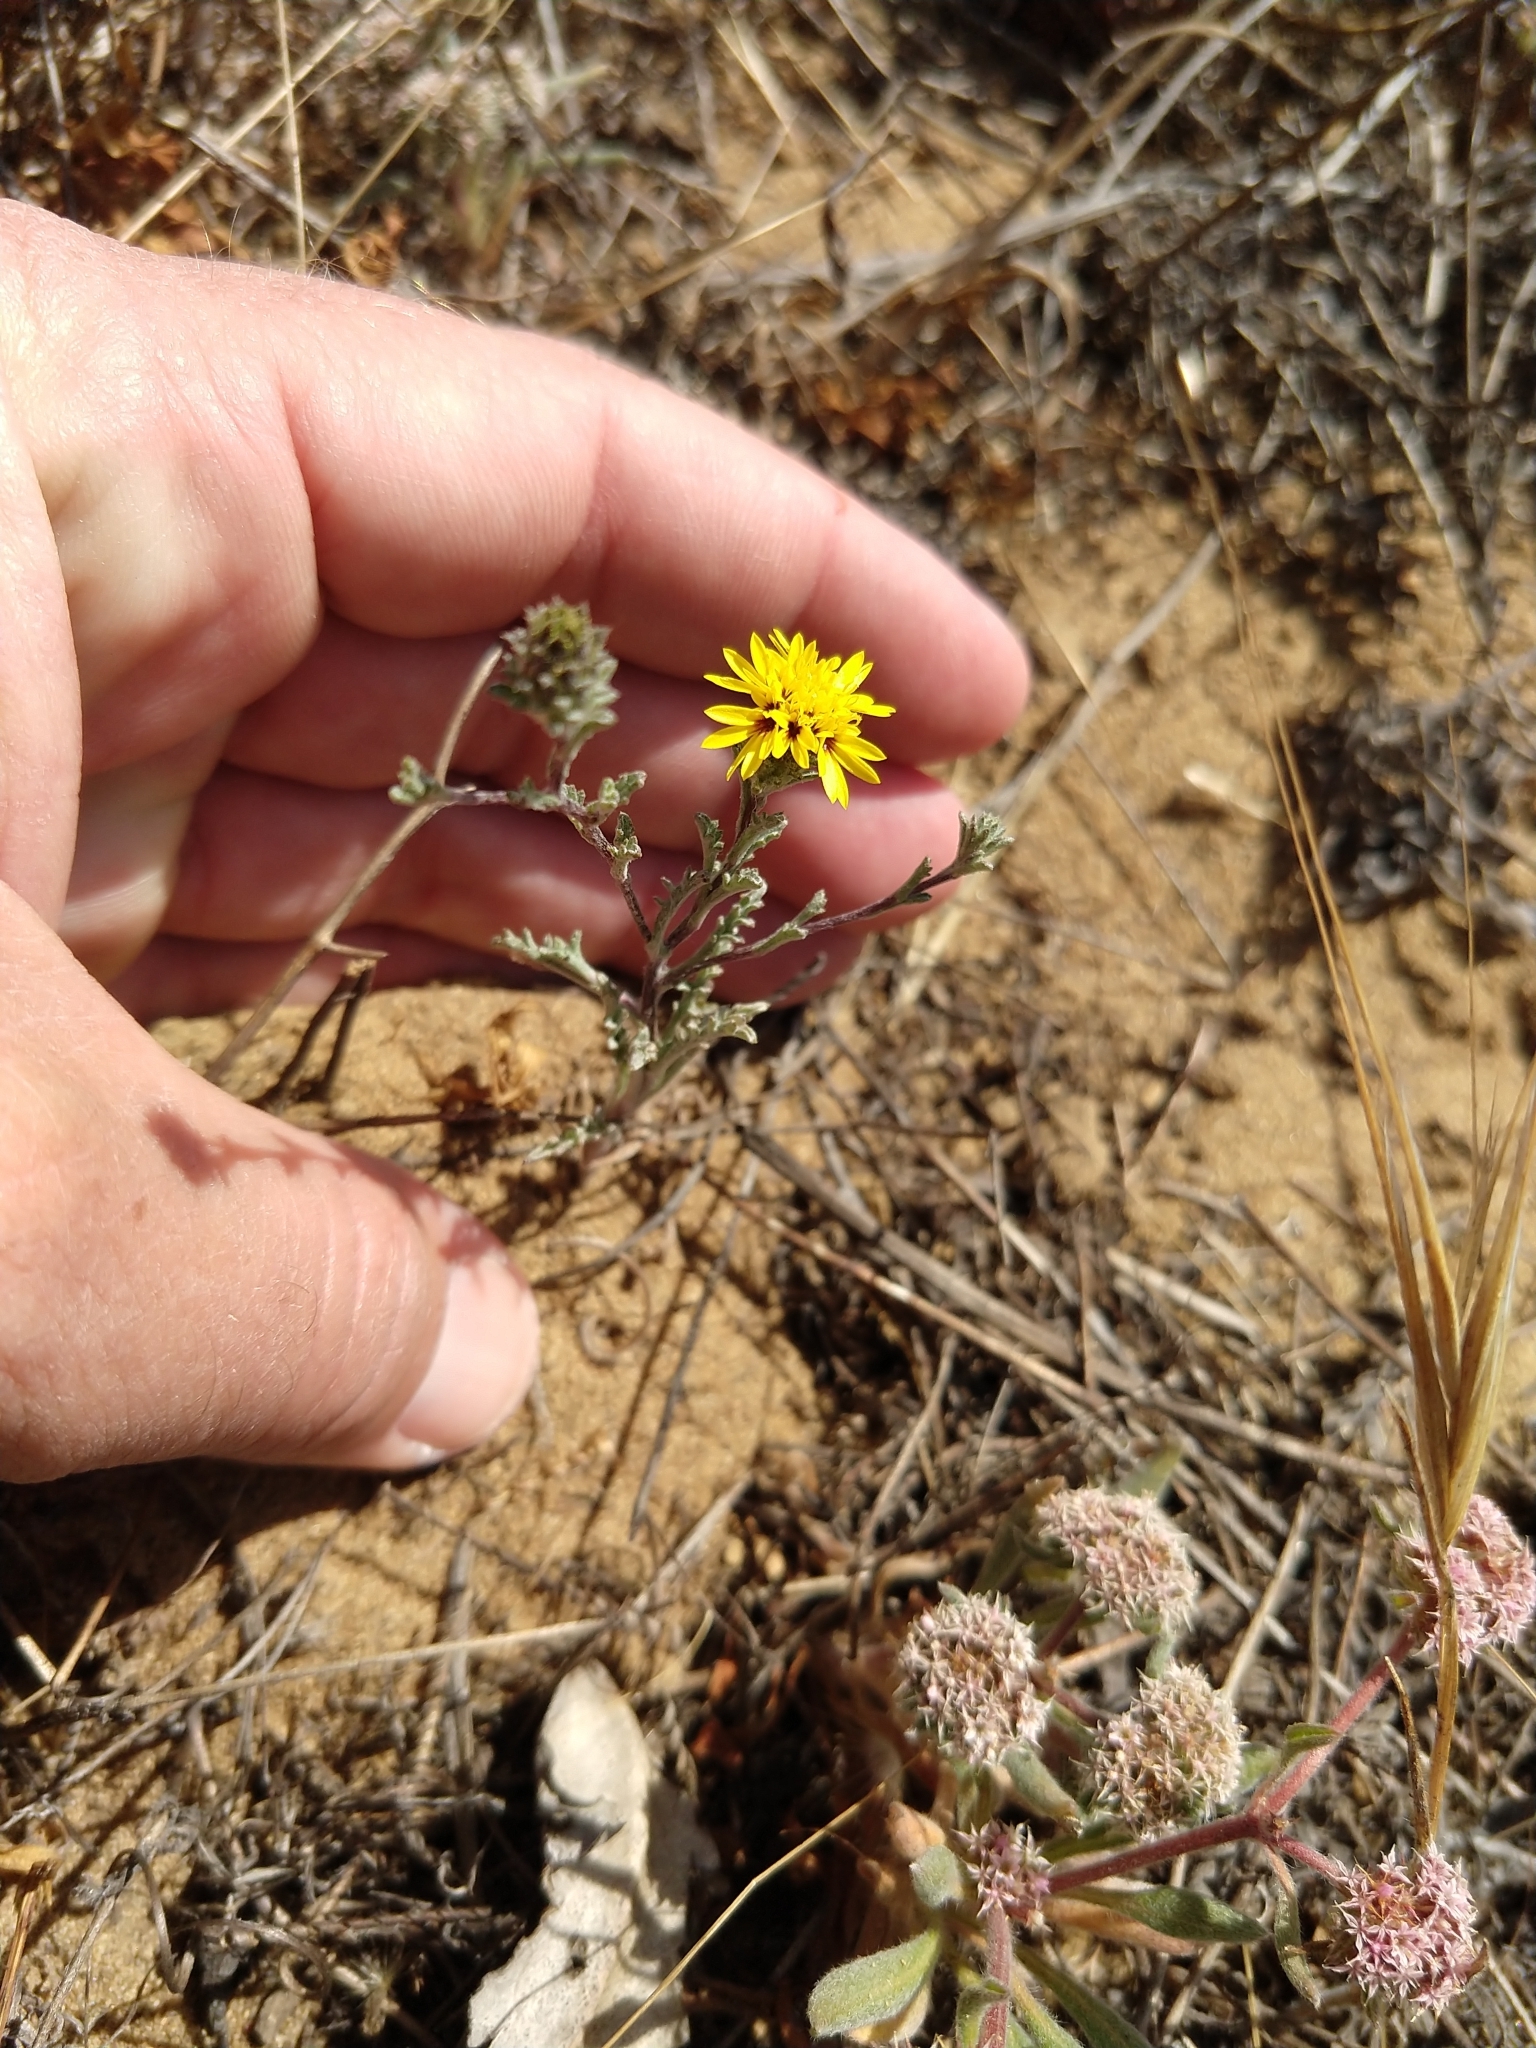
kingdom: Plantae
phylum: Tracheophyta
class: Magnoliopsida
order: Asterales
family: Asteraceae
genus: Lessingia
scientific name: Lessingia germanorum
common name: San francisco lessingia
